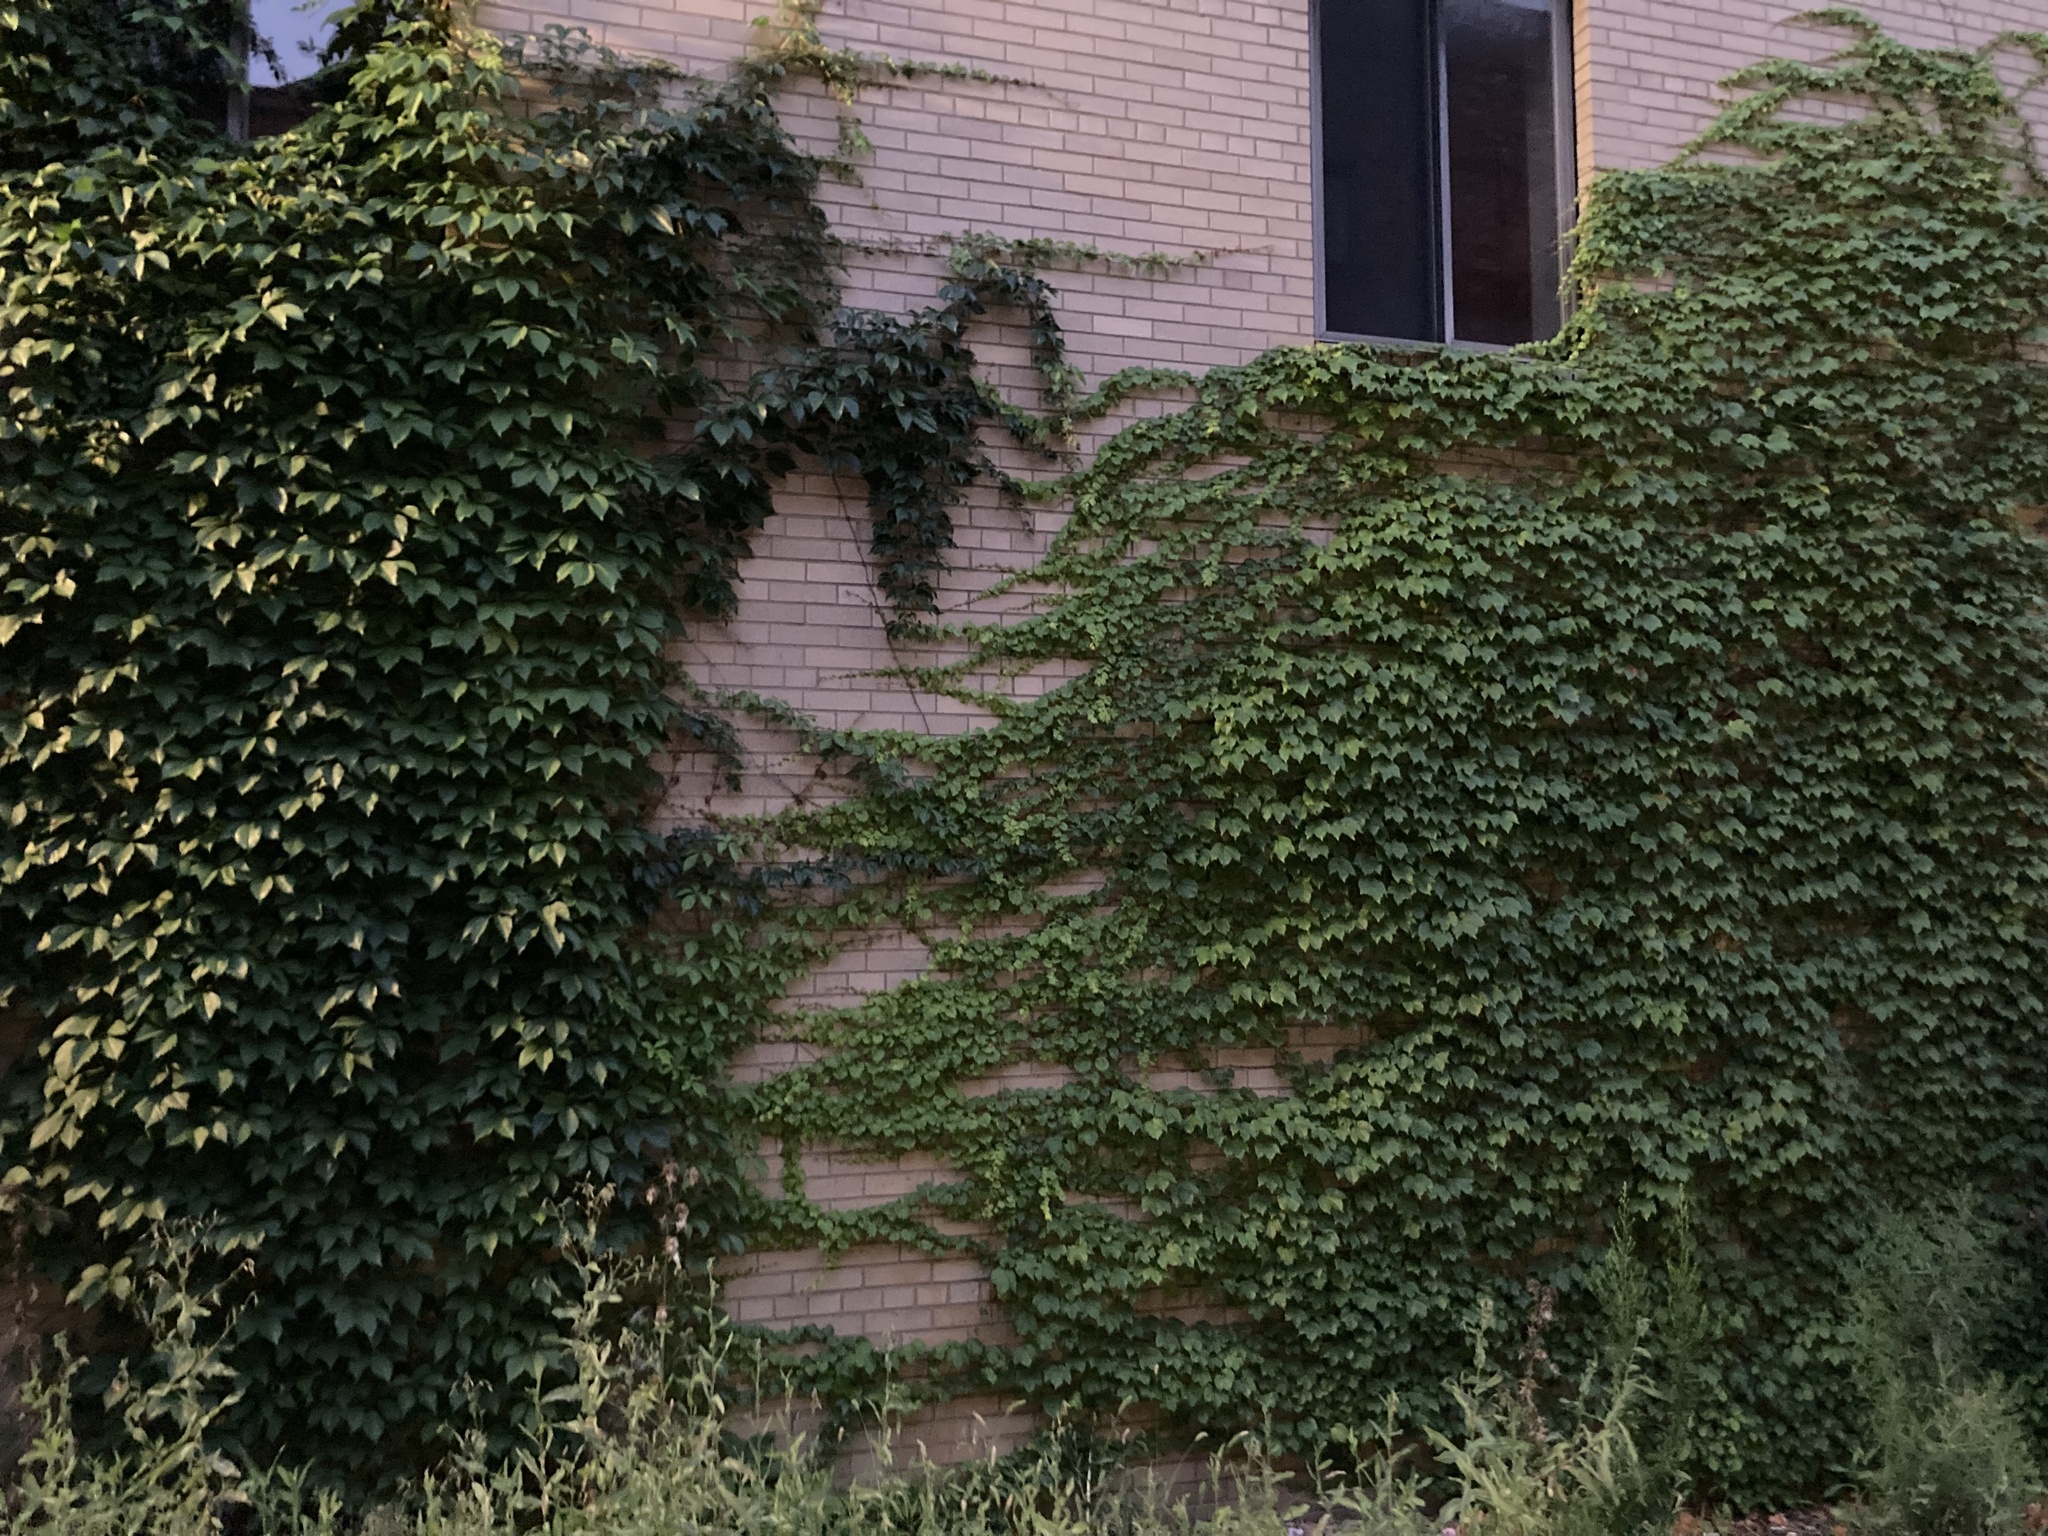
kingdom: Plantae
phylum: Tracheophyta
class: Magnoliopsida
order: Vitales
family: Vitaceae
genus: Parthenocissus
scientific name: Parthenocissus tricuspidata
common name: Boston ivy
